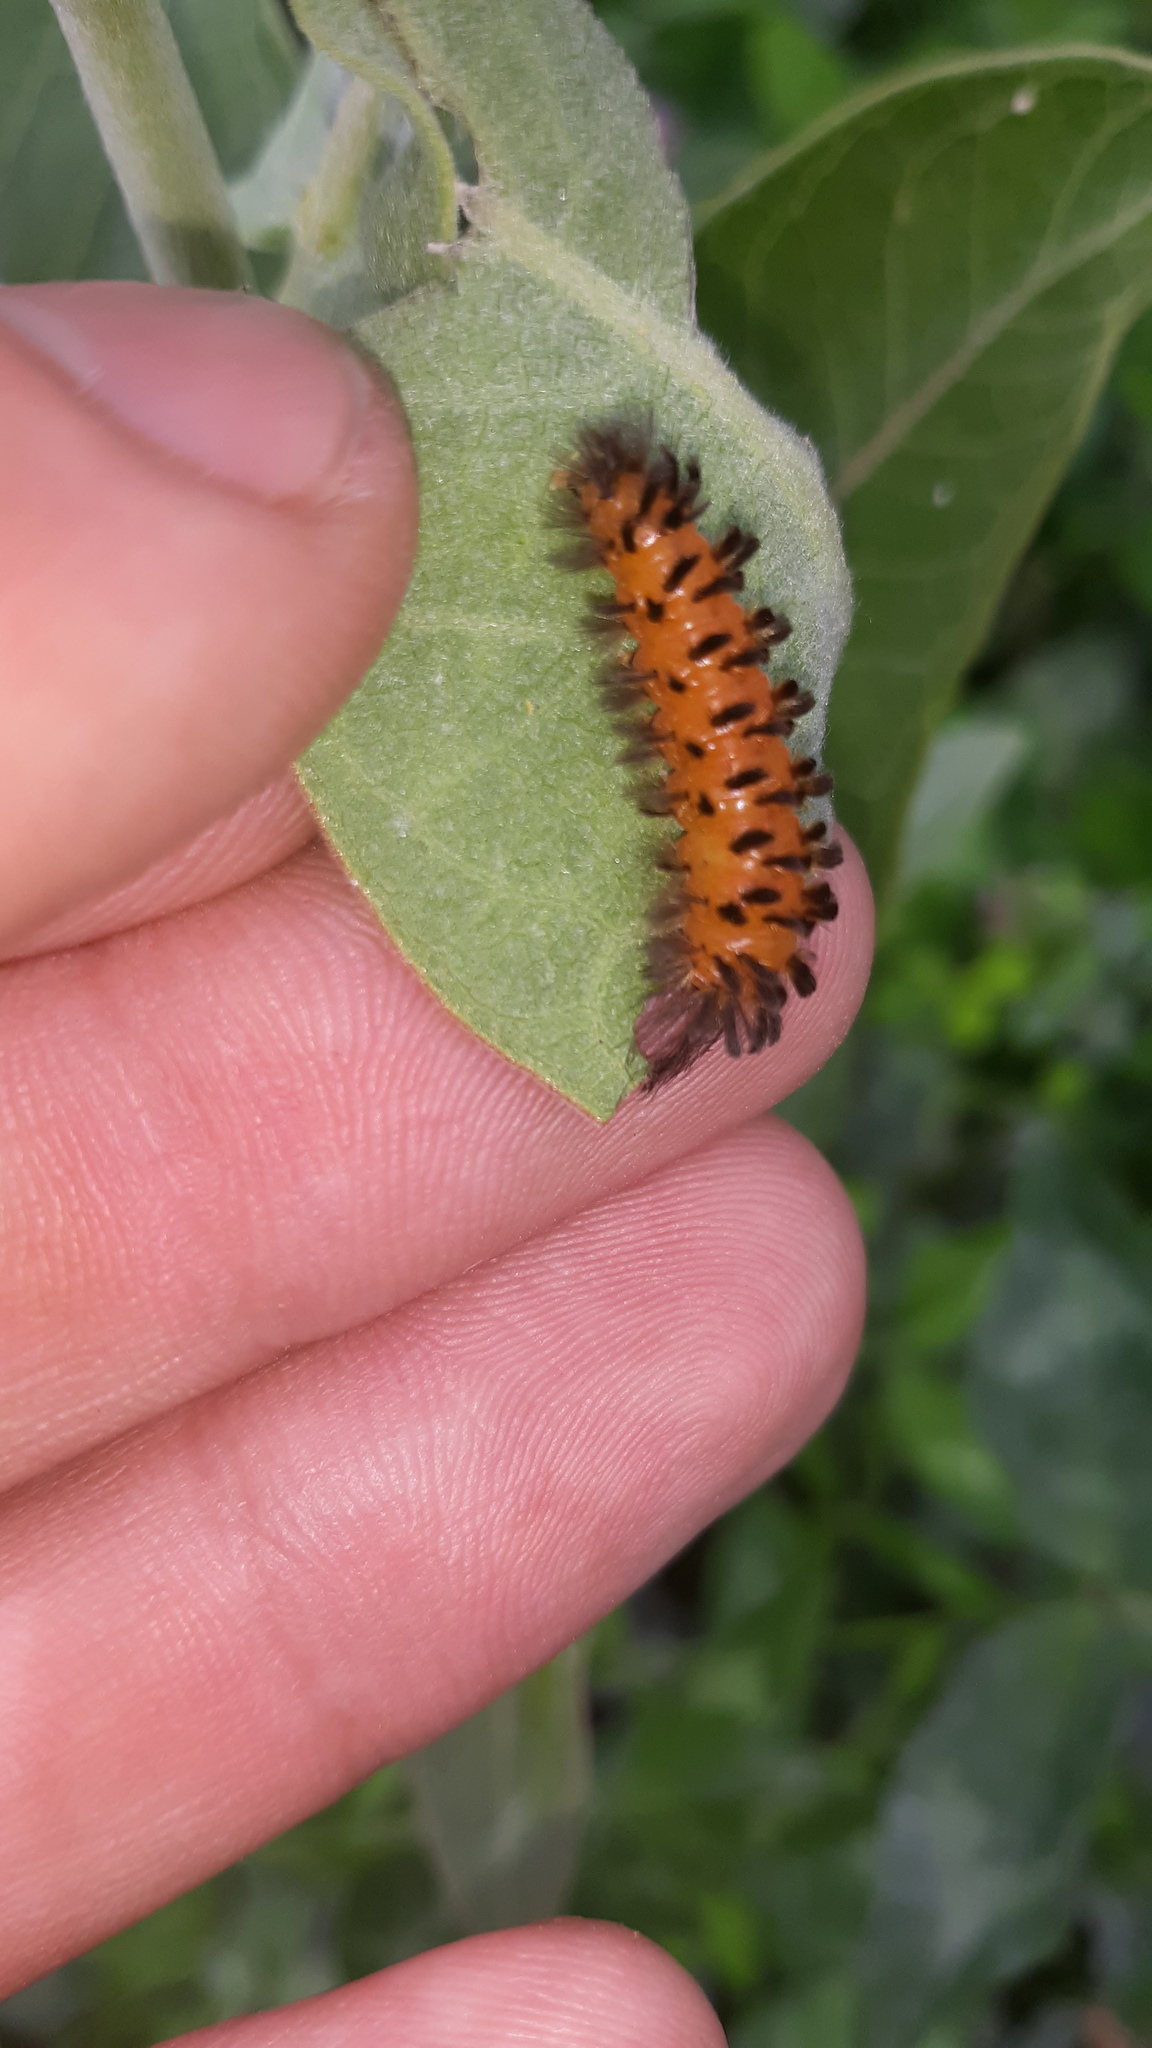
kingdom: Animalia
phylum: Arthropoda
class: Insecta
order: Lepidoptera
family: Erebidae
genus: Cycnia
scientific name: Cycnia collaris
